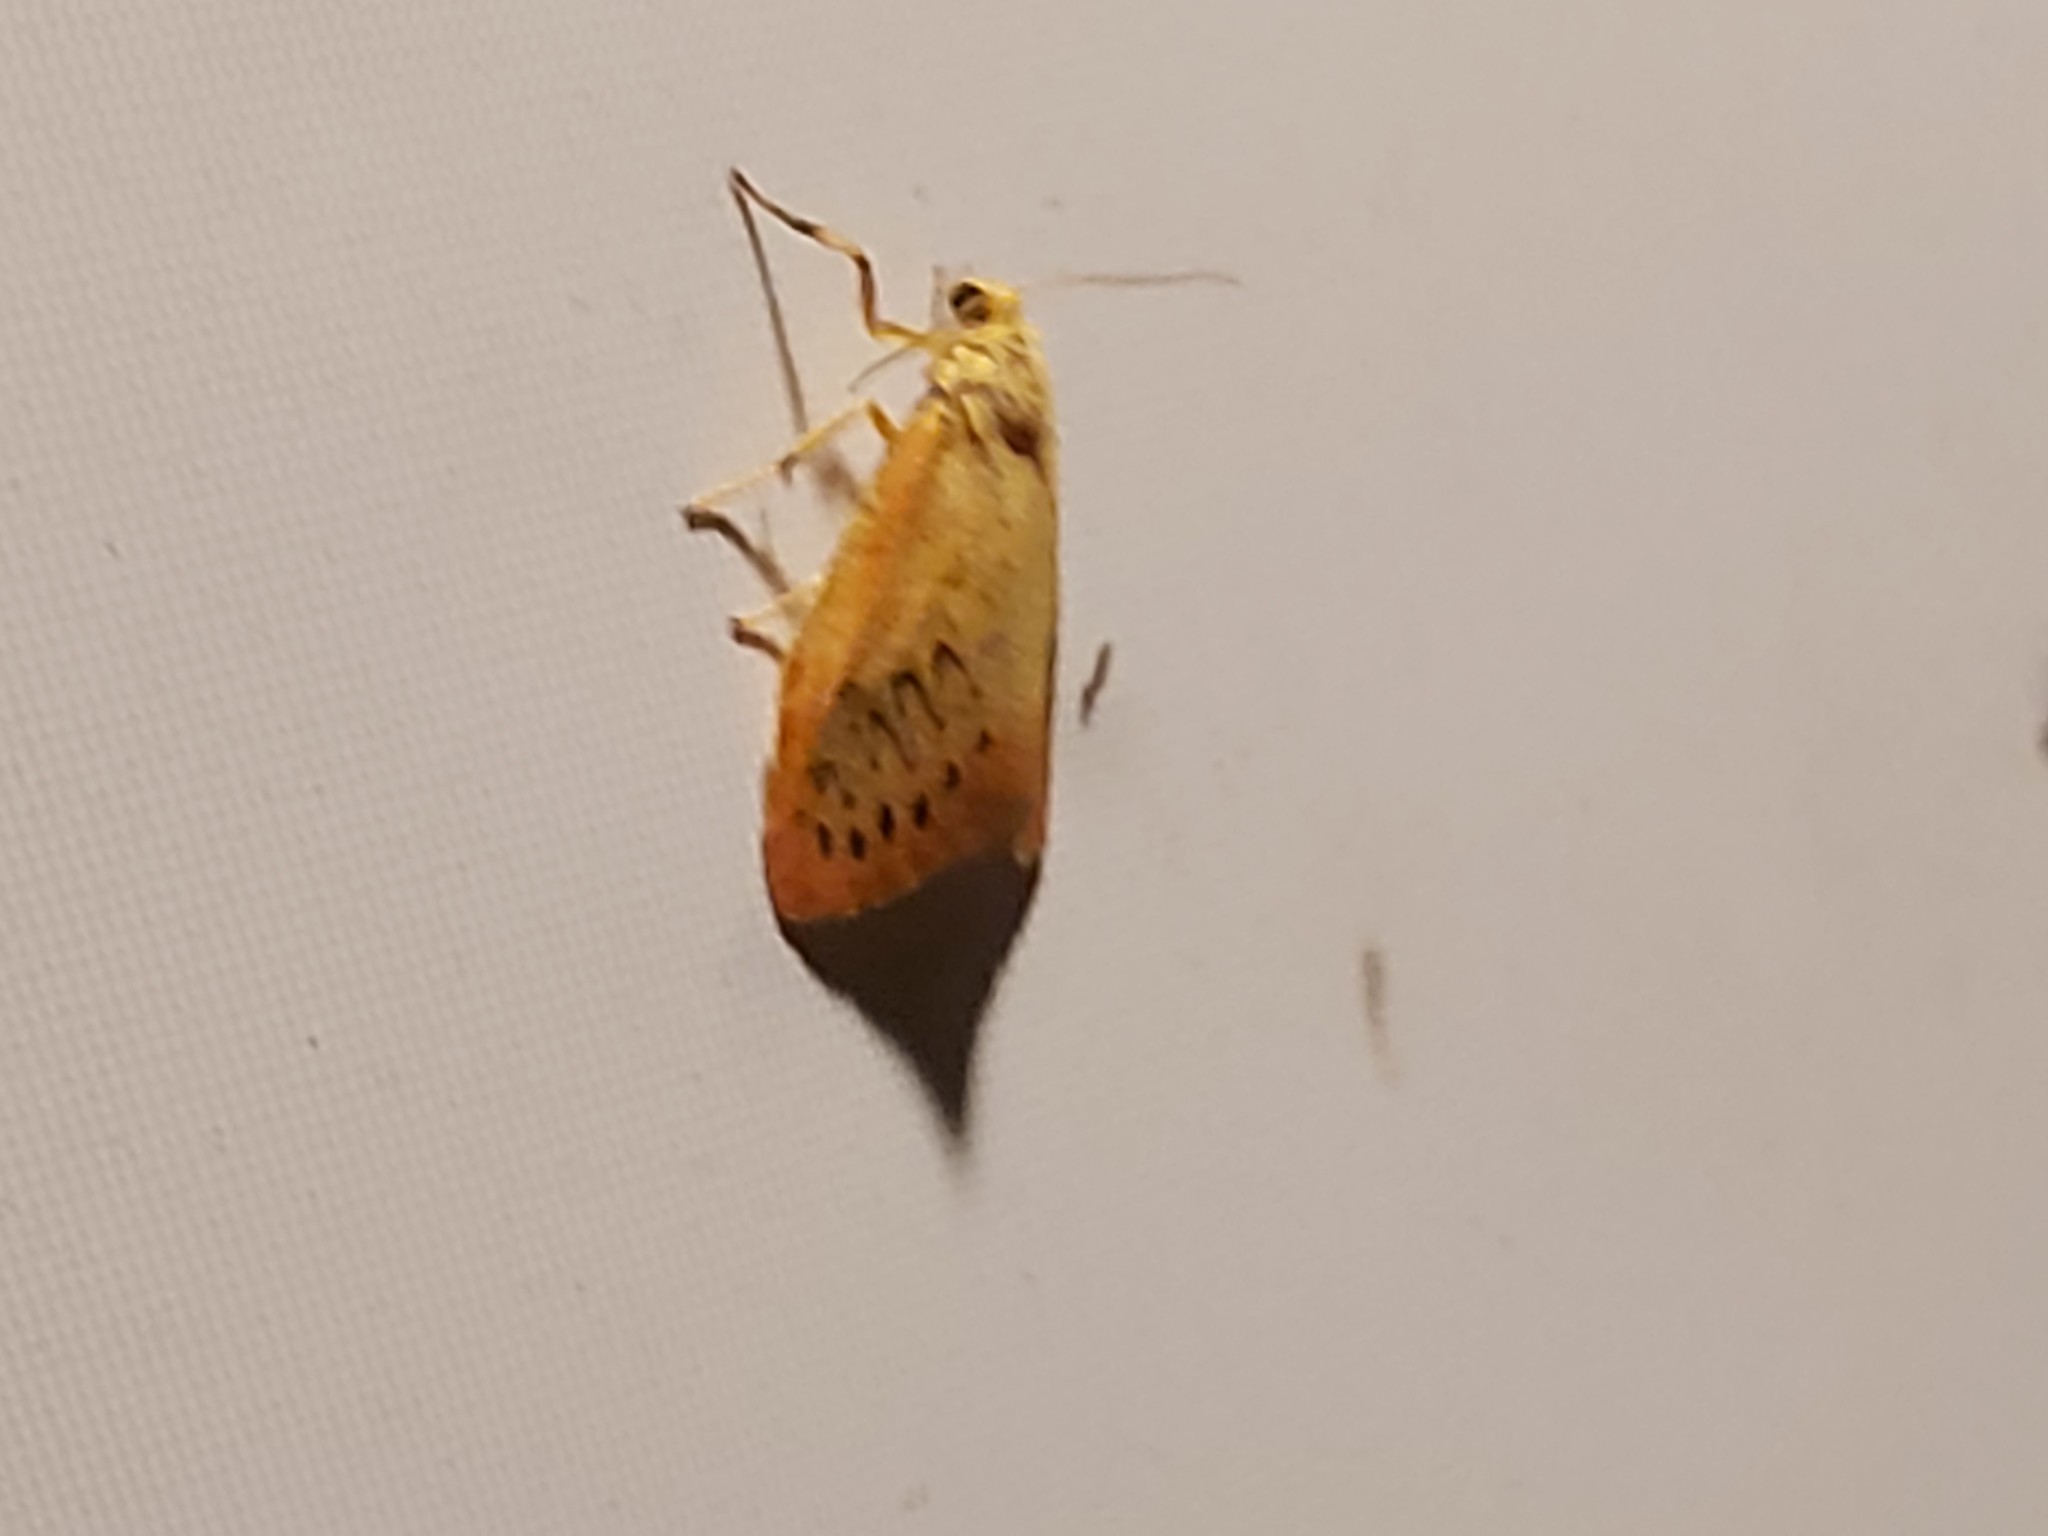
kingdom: Animalia
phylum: Arthropoda
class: Insecta
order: Lepidoptera
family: Erebidae
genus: Miltochrista
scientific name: Miltochrista miniata
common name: Rosy footman
